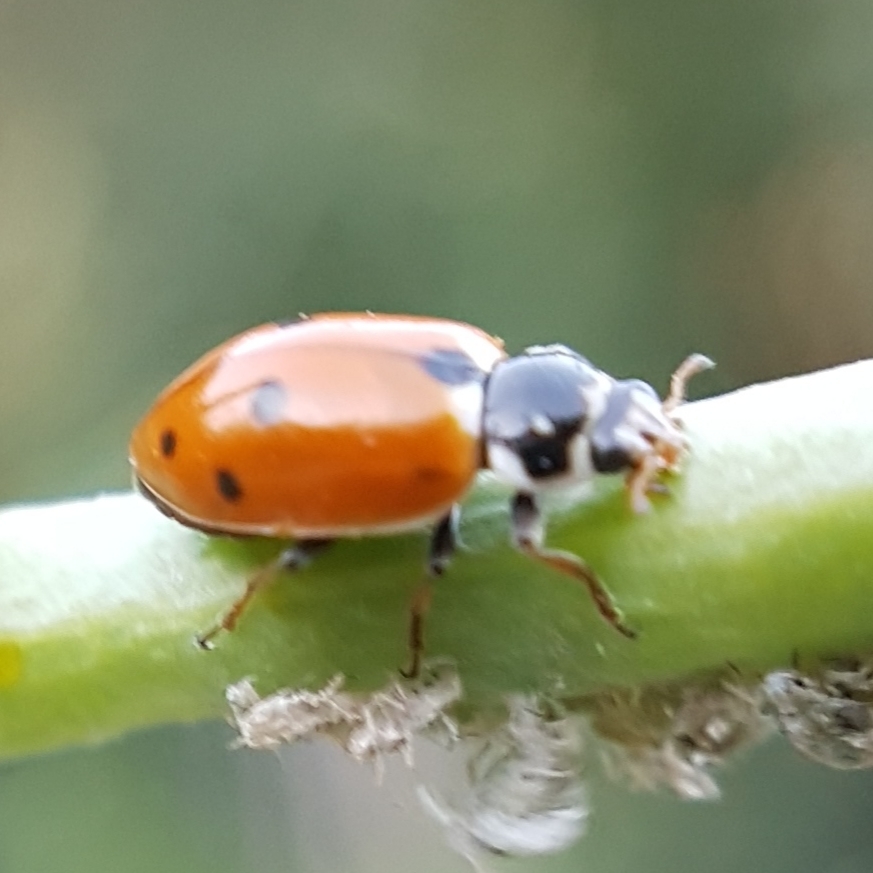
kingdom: Animalia
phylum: Arthropoda
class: Insecta
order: Coleoptera
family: Coccinellidae
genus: Hippodamia
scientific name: Hippodamia variegata
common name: Ladybird beetle
